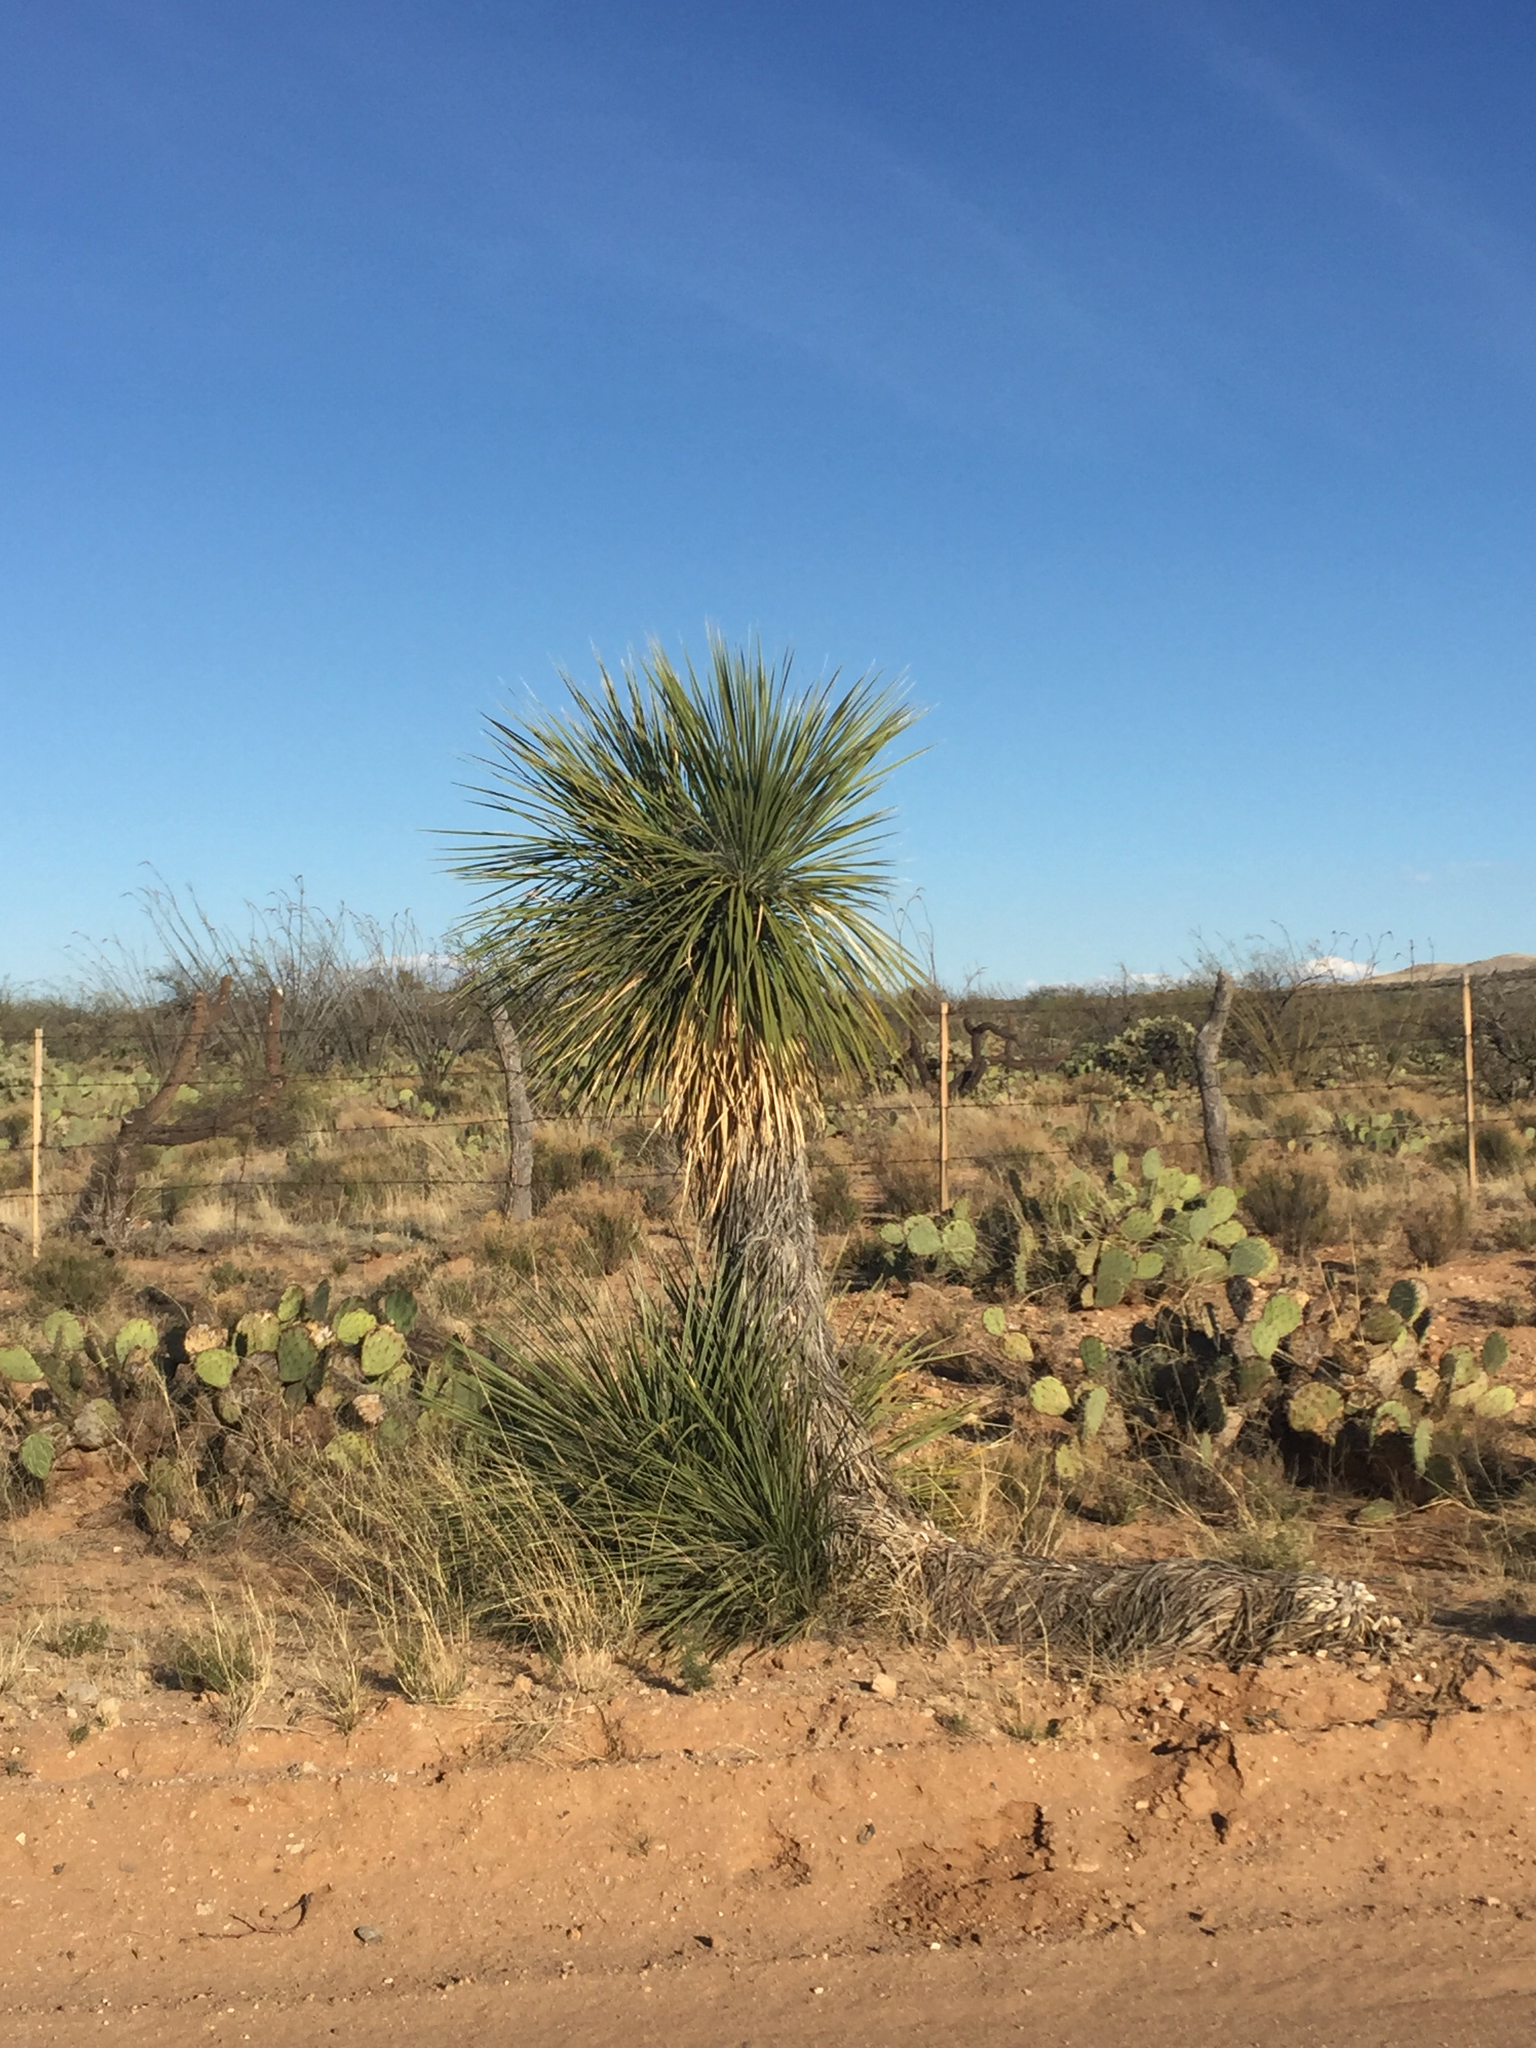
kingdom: Plantae
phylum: Tracheophyta
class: Liliopsida
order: Asparagales
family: Asparagaceae
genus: Yucca
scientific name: Yucca elata
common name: Palmella
